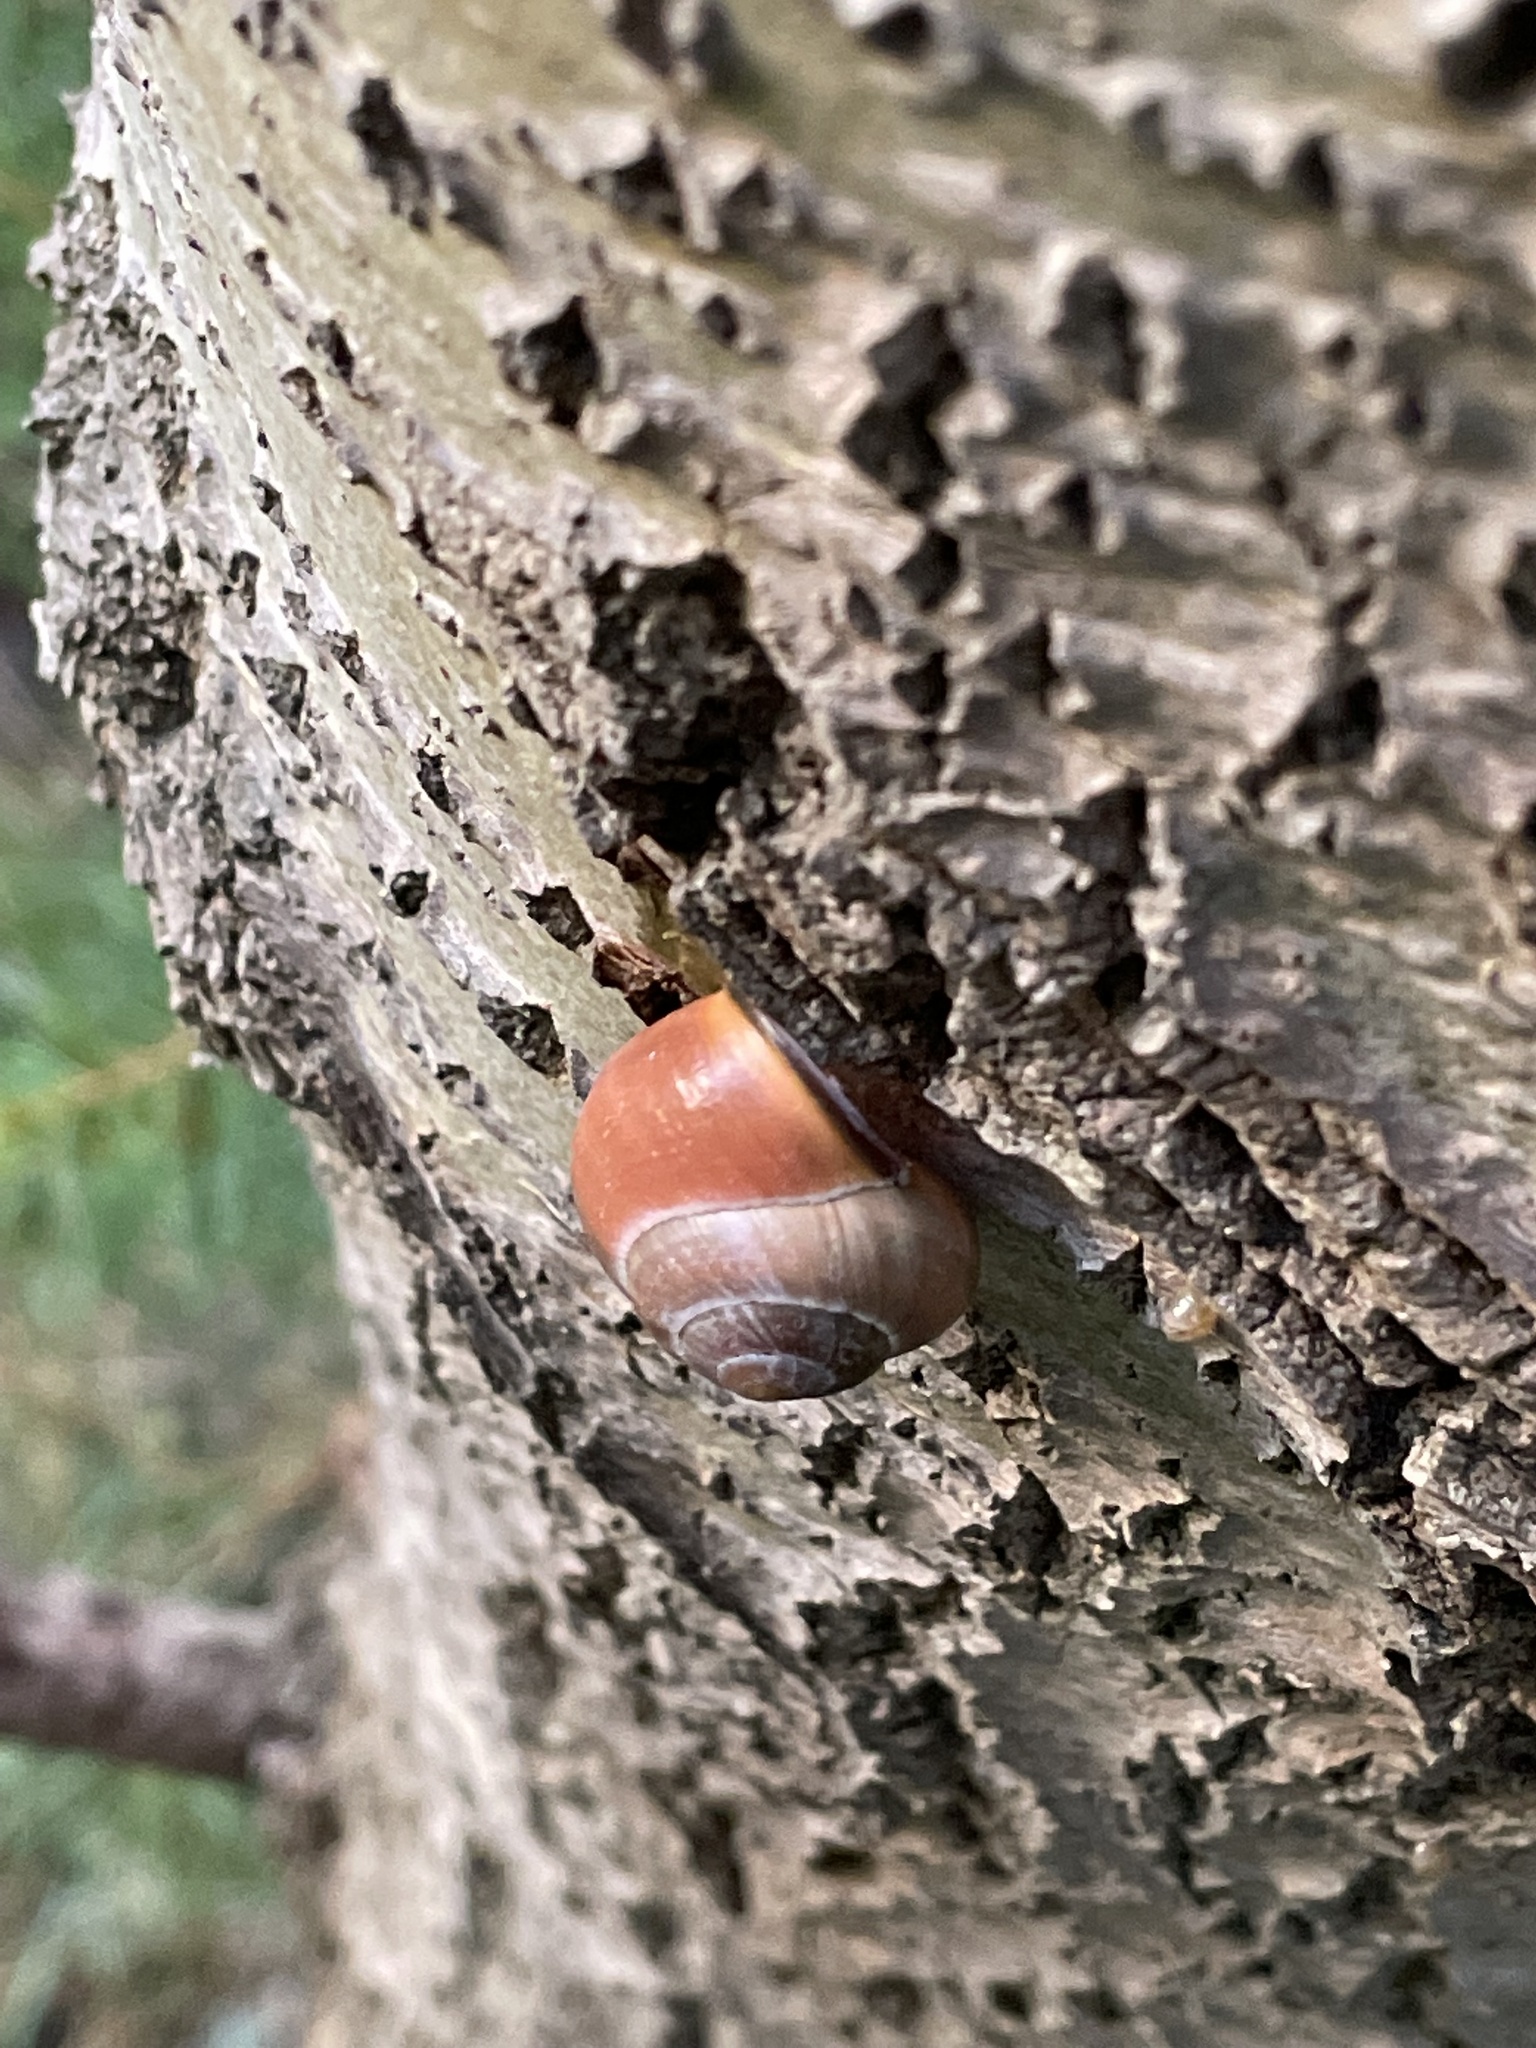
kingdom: Animalia
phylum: Mollusca
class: Gastropoda
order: Stylommatophora
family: Helicidae
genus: Cepaea
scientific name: Cepaea nemoralis
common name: Grovesnail
